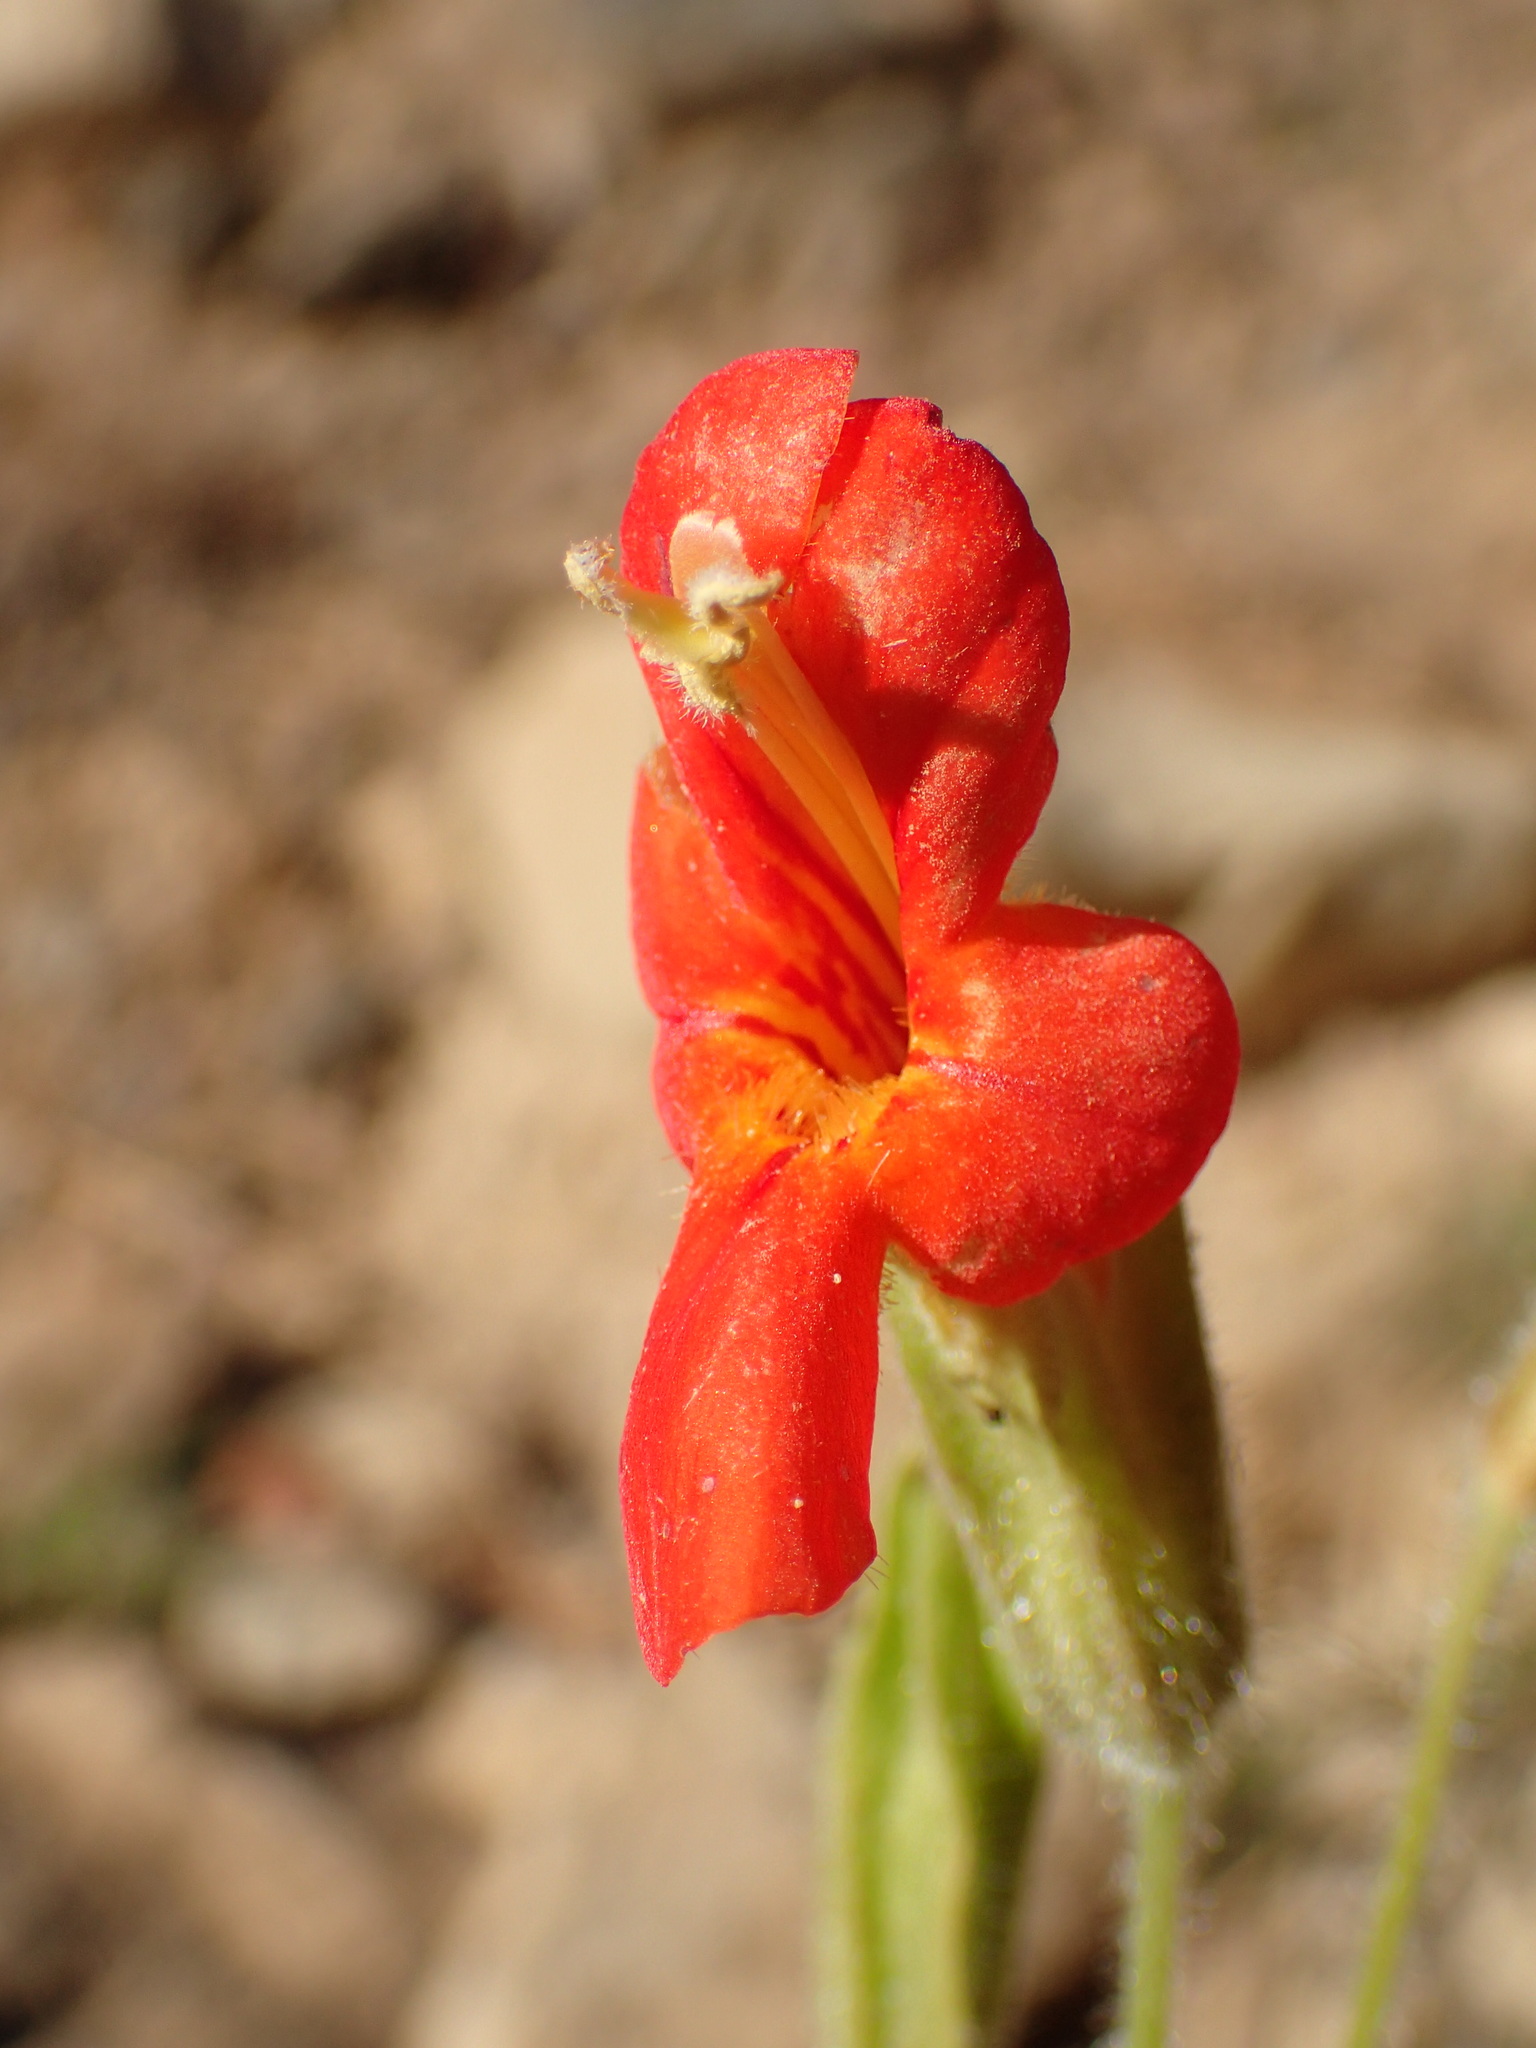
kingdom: Plantae
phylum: Tracheophyta
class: Magnoliopsida
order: Lamiales
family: Phrymaceae
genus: Erythranthe
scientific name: Erythranthe cardinalis
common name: Scarlet monkey-flower
